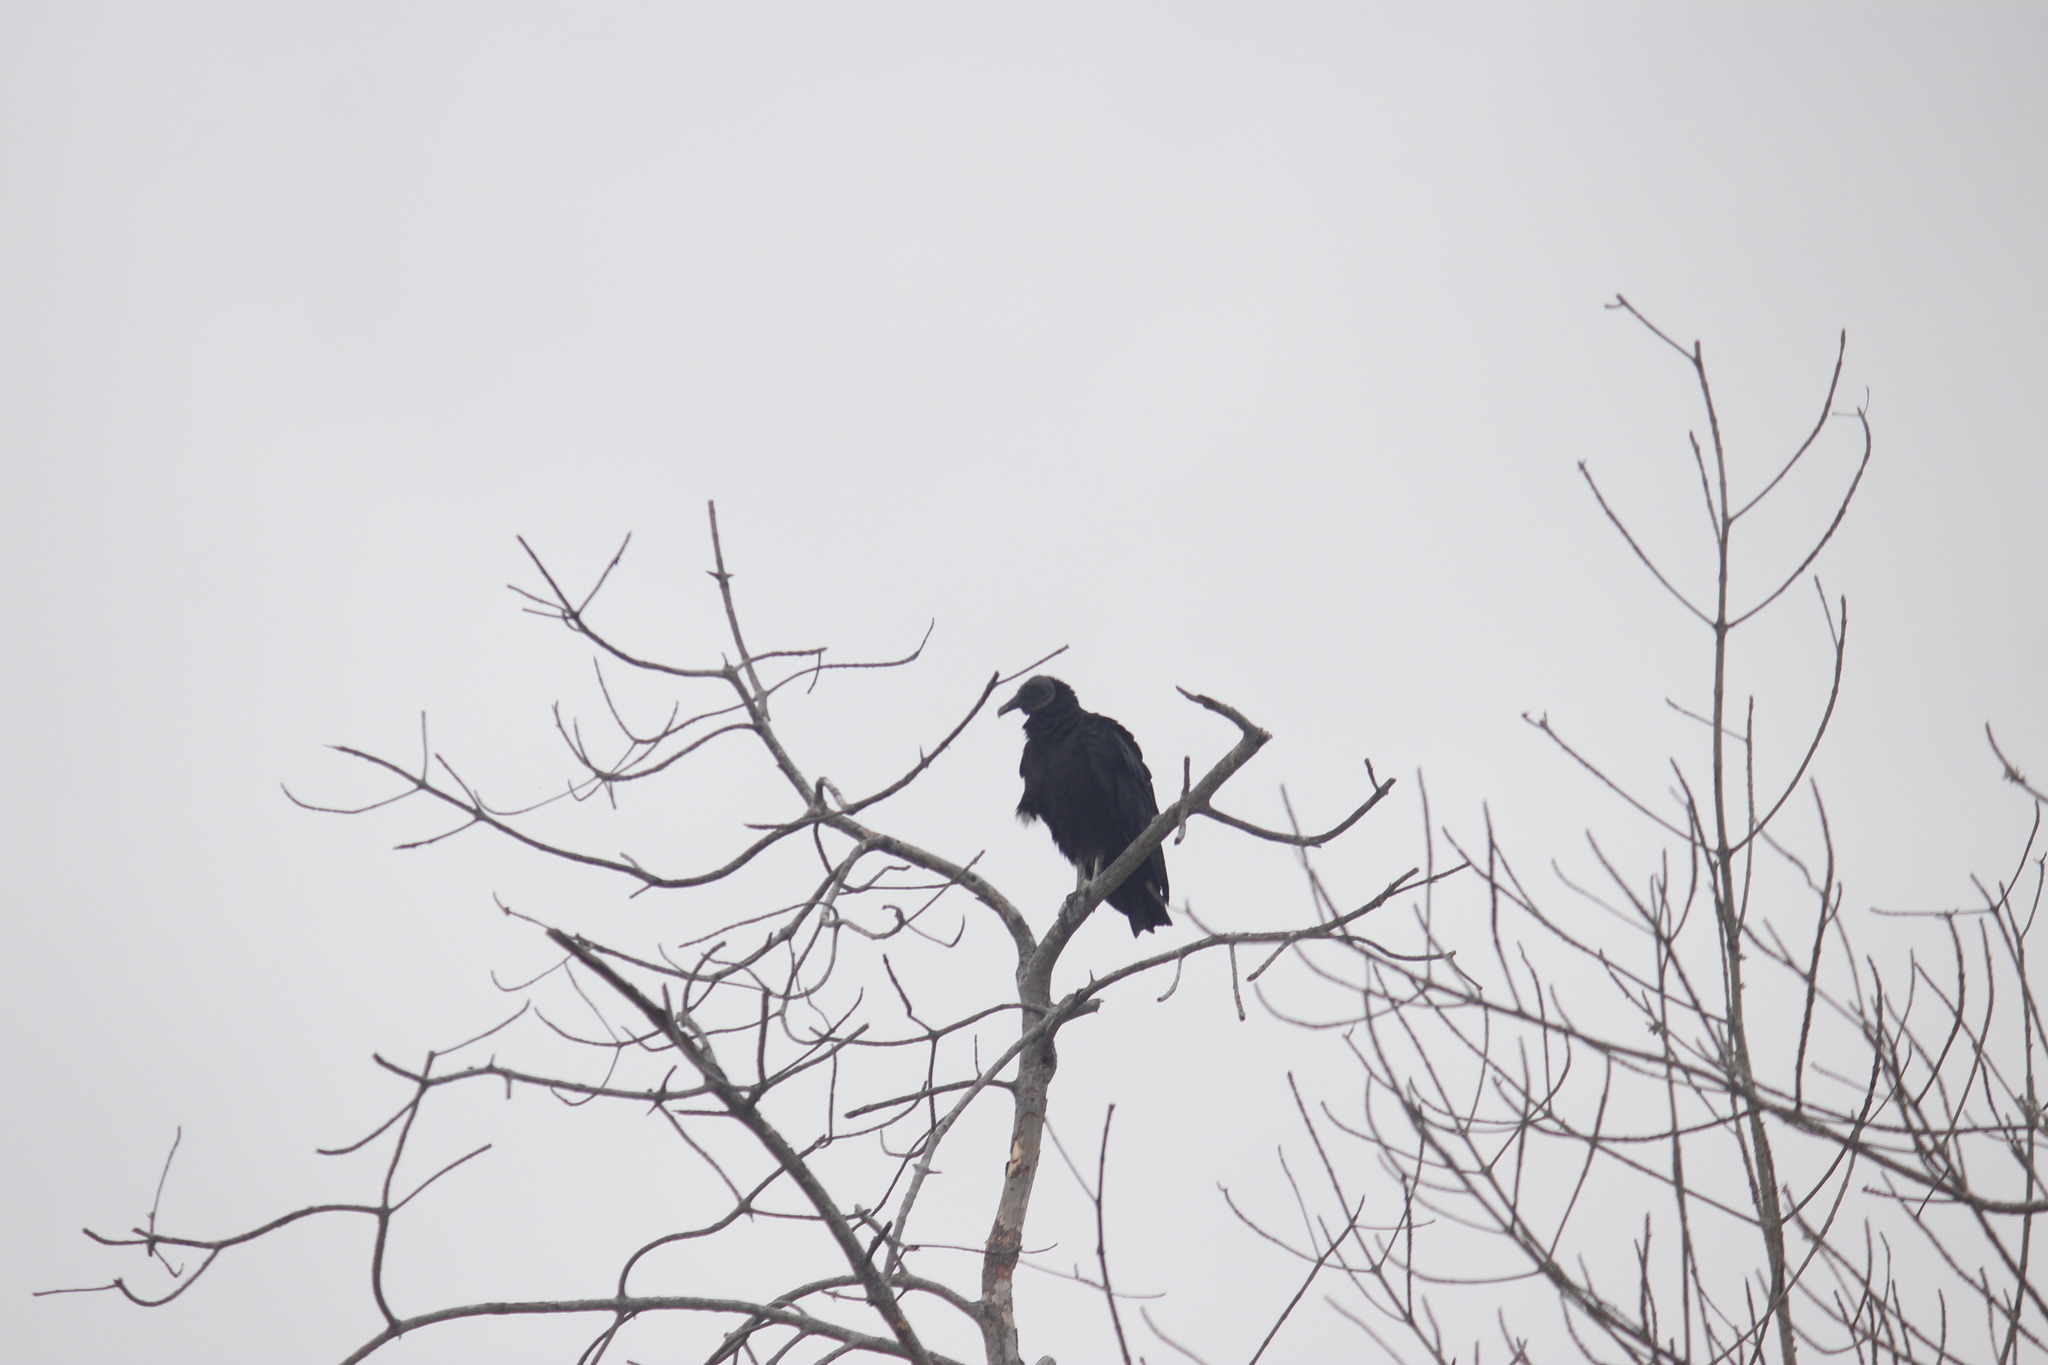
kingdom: Animalia
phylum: Chordata
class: Aves
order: Accipitriformes
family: Cathartidae
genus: Coragyps
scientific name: Coragyps atratus
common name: Black vulture
